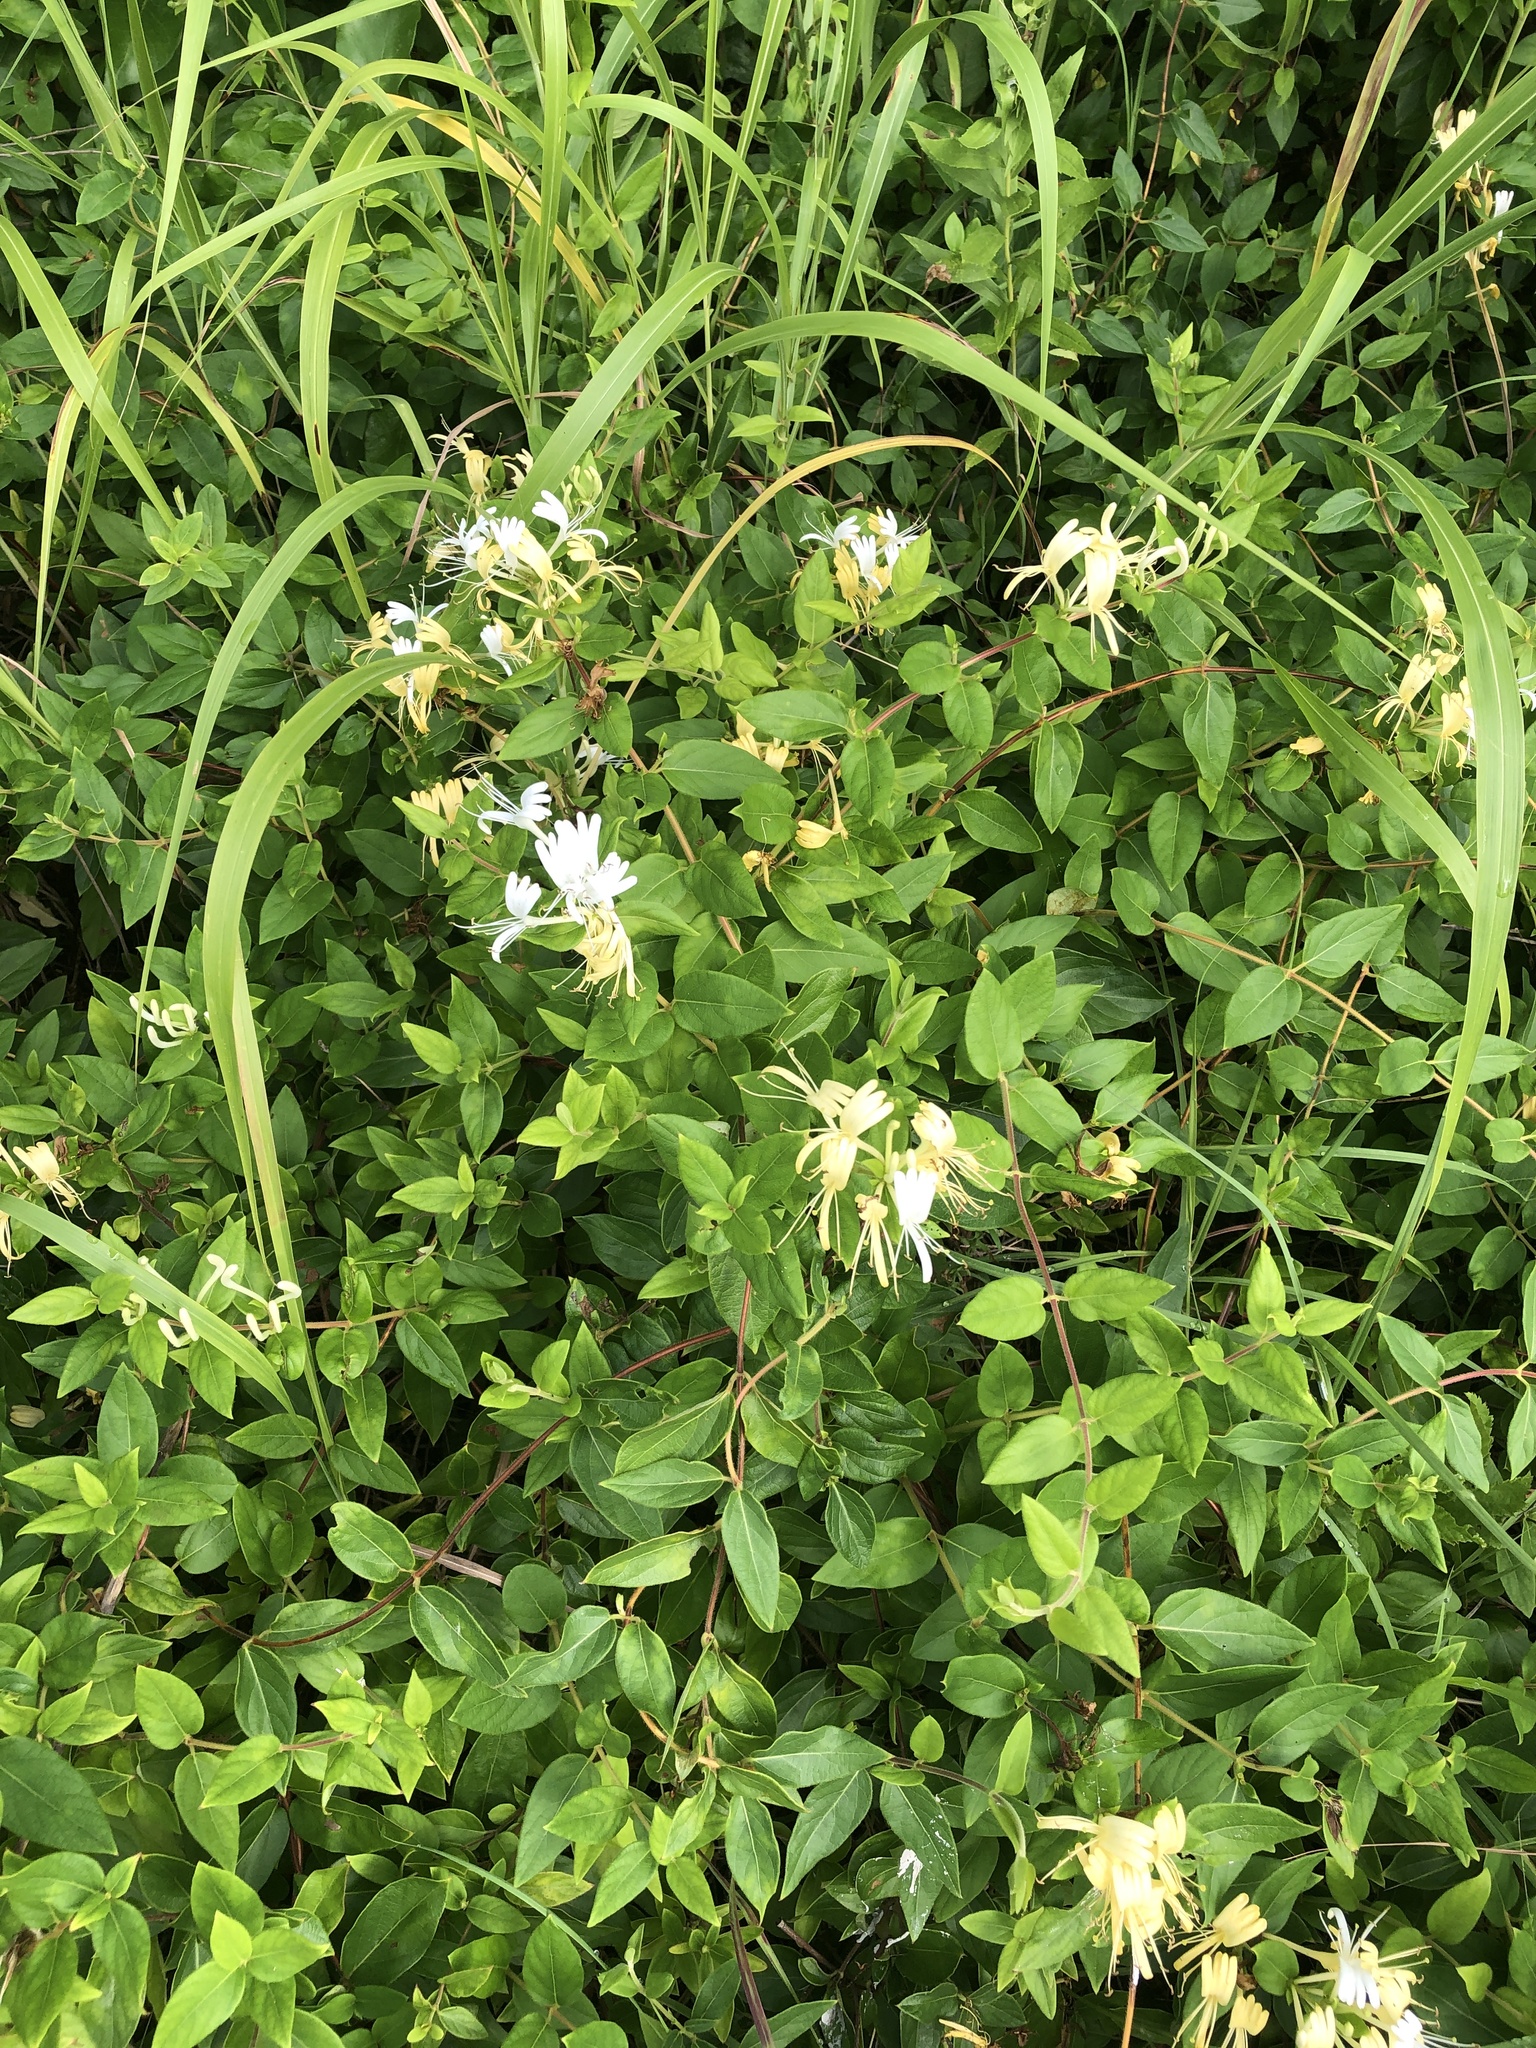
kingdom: Plantae
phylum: Tracheophyta
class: Magnoliopsida
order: Dipsacales
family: Caprifoliaceae
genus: Lonicera
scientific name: Lonicera japonica
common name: Japanese honeysuckle
